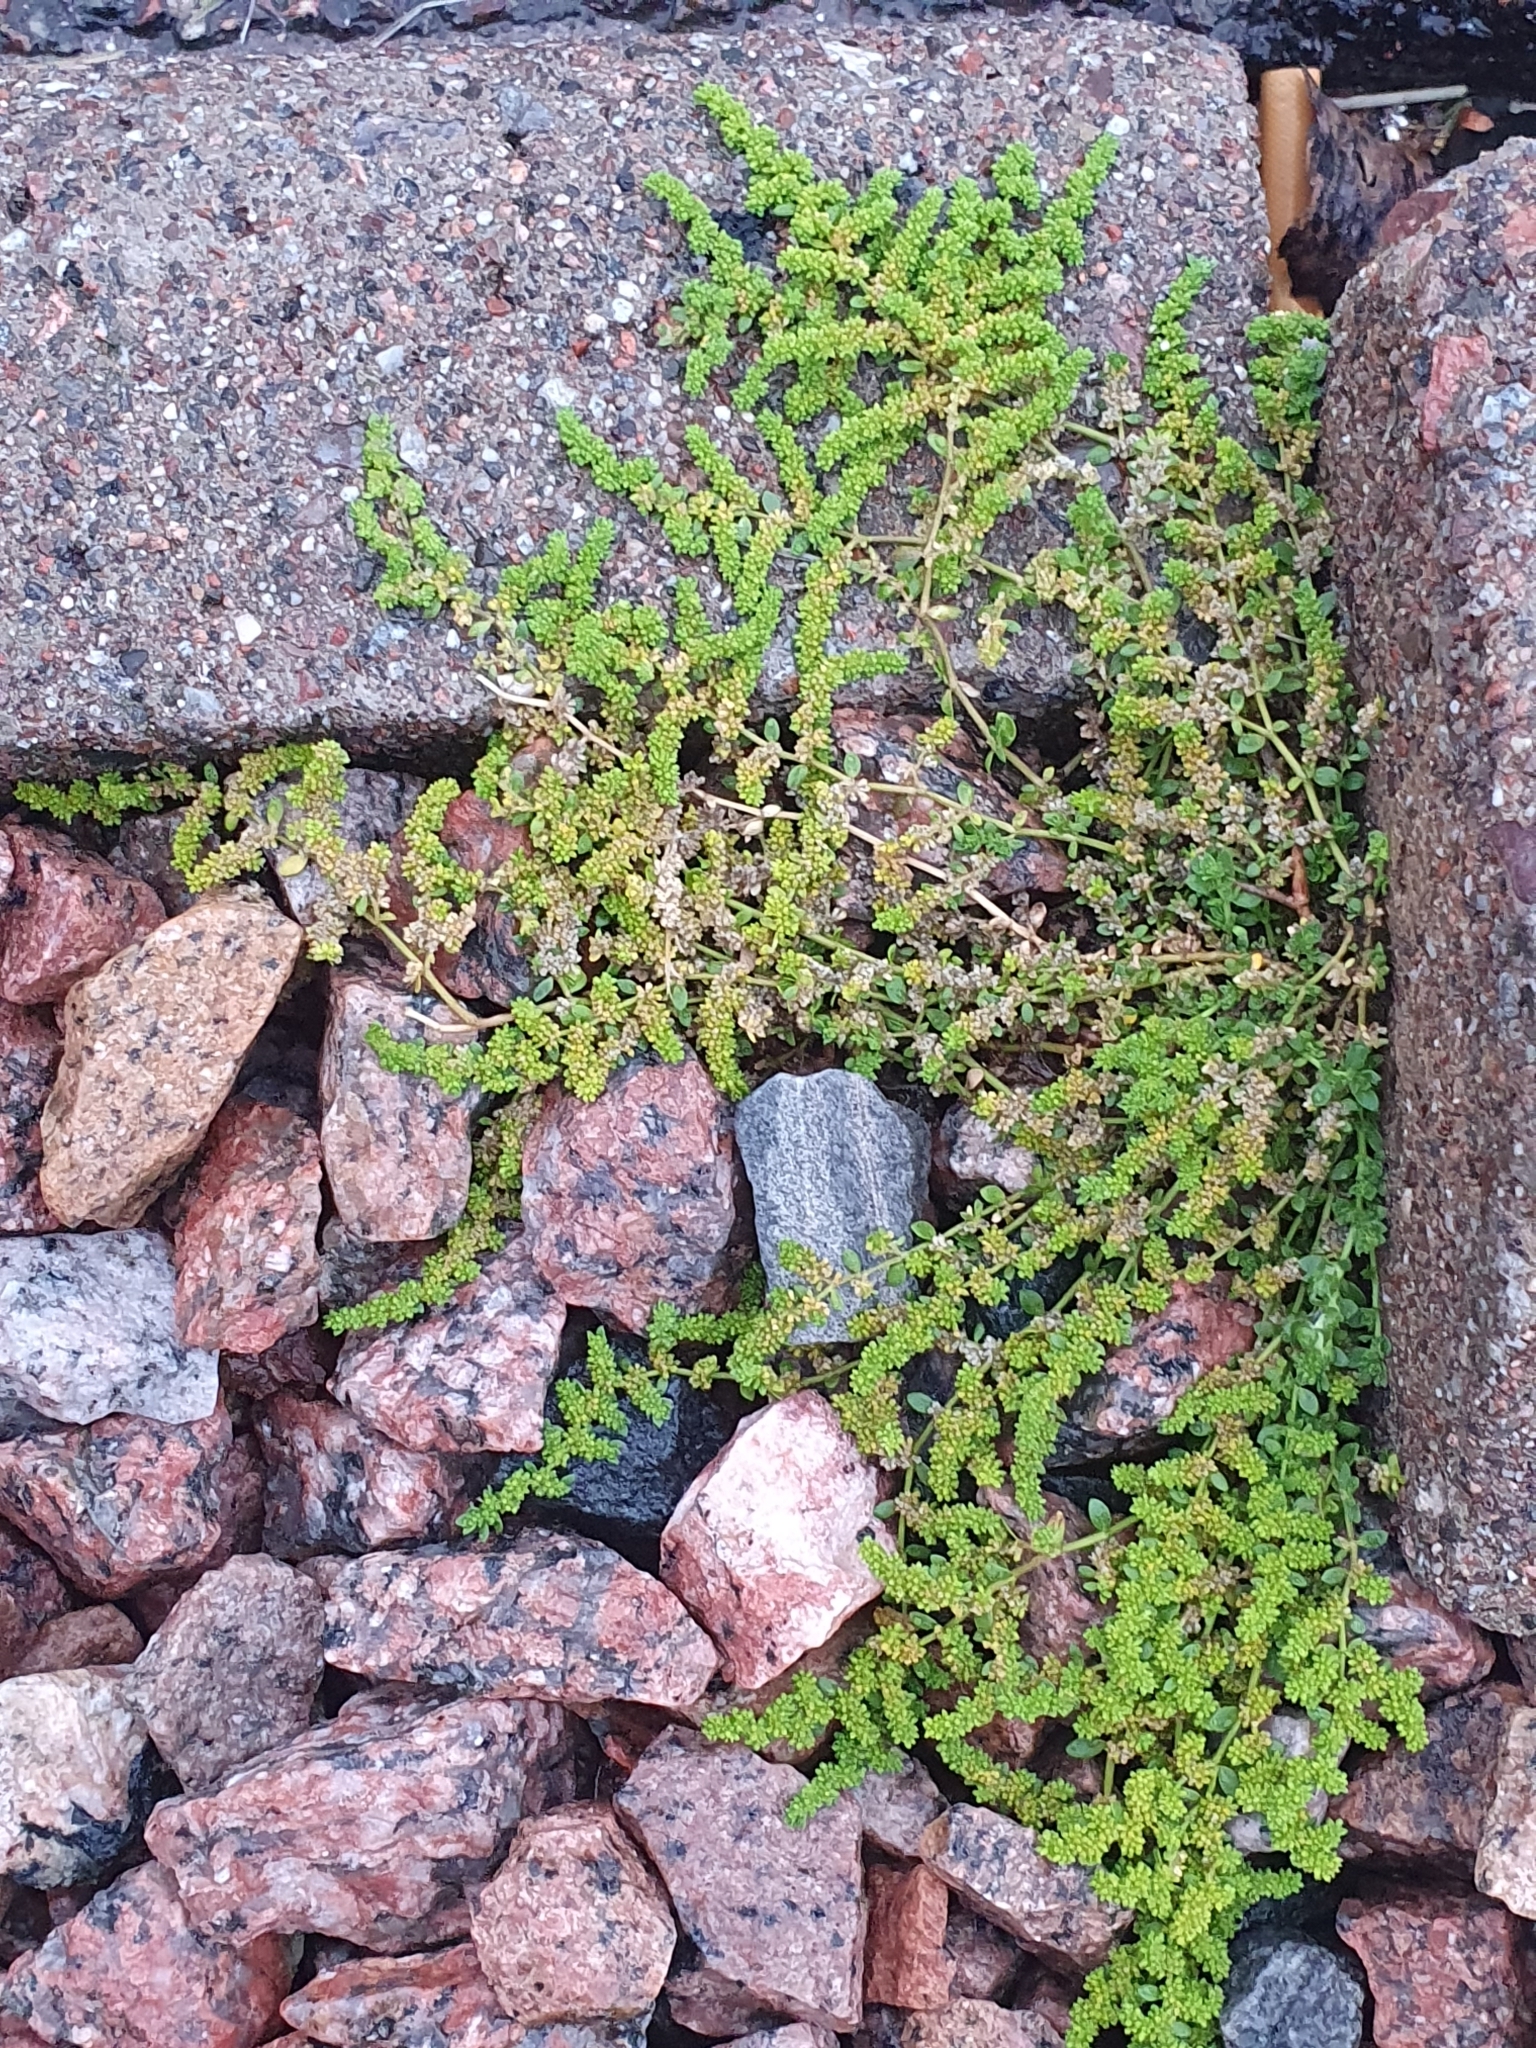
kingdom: Plantae
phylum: Tracheophyta
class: Magnoliopsida
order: Caryophyllales
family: Caryophyllaceae
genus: Herniaria
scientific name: Herniaria glabra
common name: Smooth rupturewort
